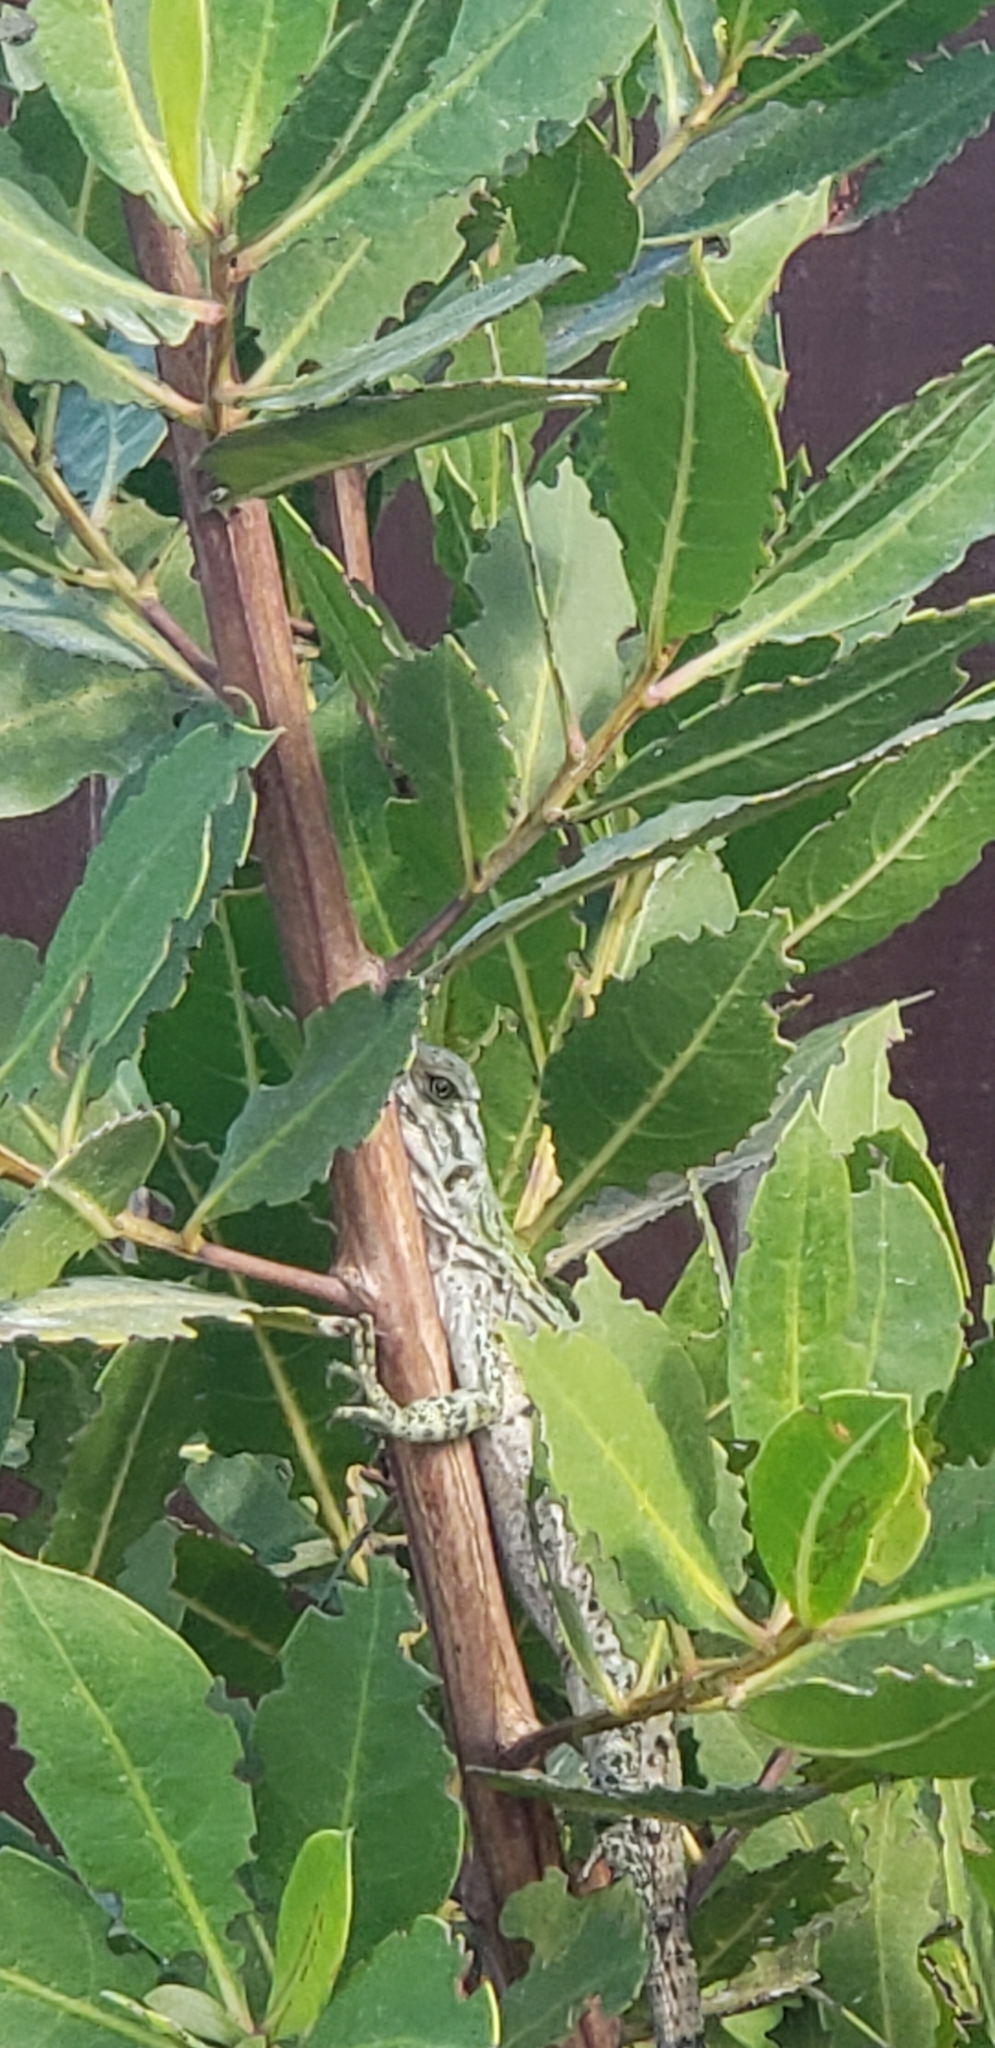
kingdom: Animalia
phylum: Chordata
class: Squamata
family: Iguanidae
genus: Ctenosaura
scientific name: Ctenosaura similis
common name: Black spiny-tailed iguana
